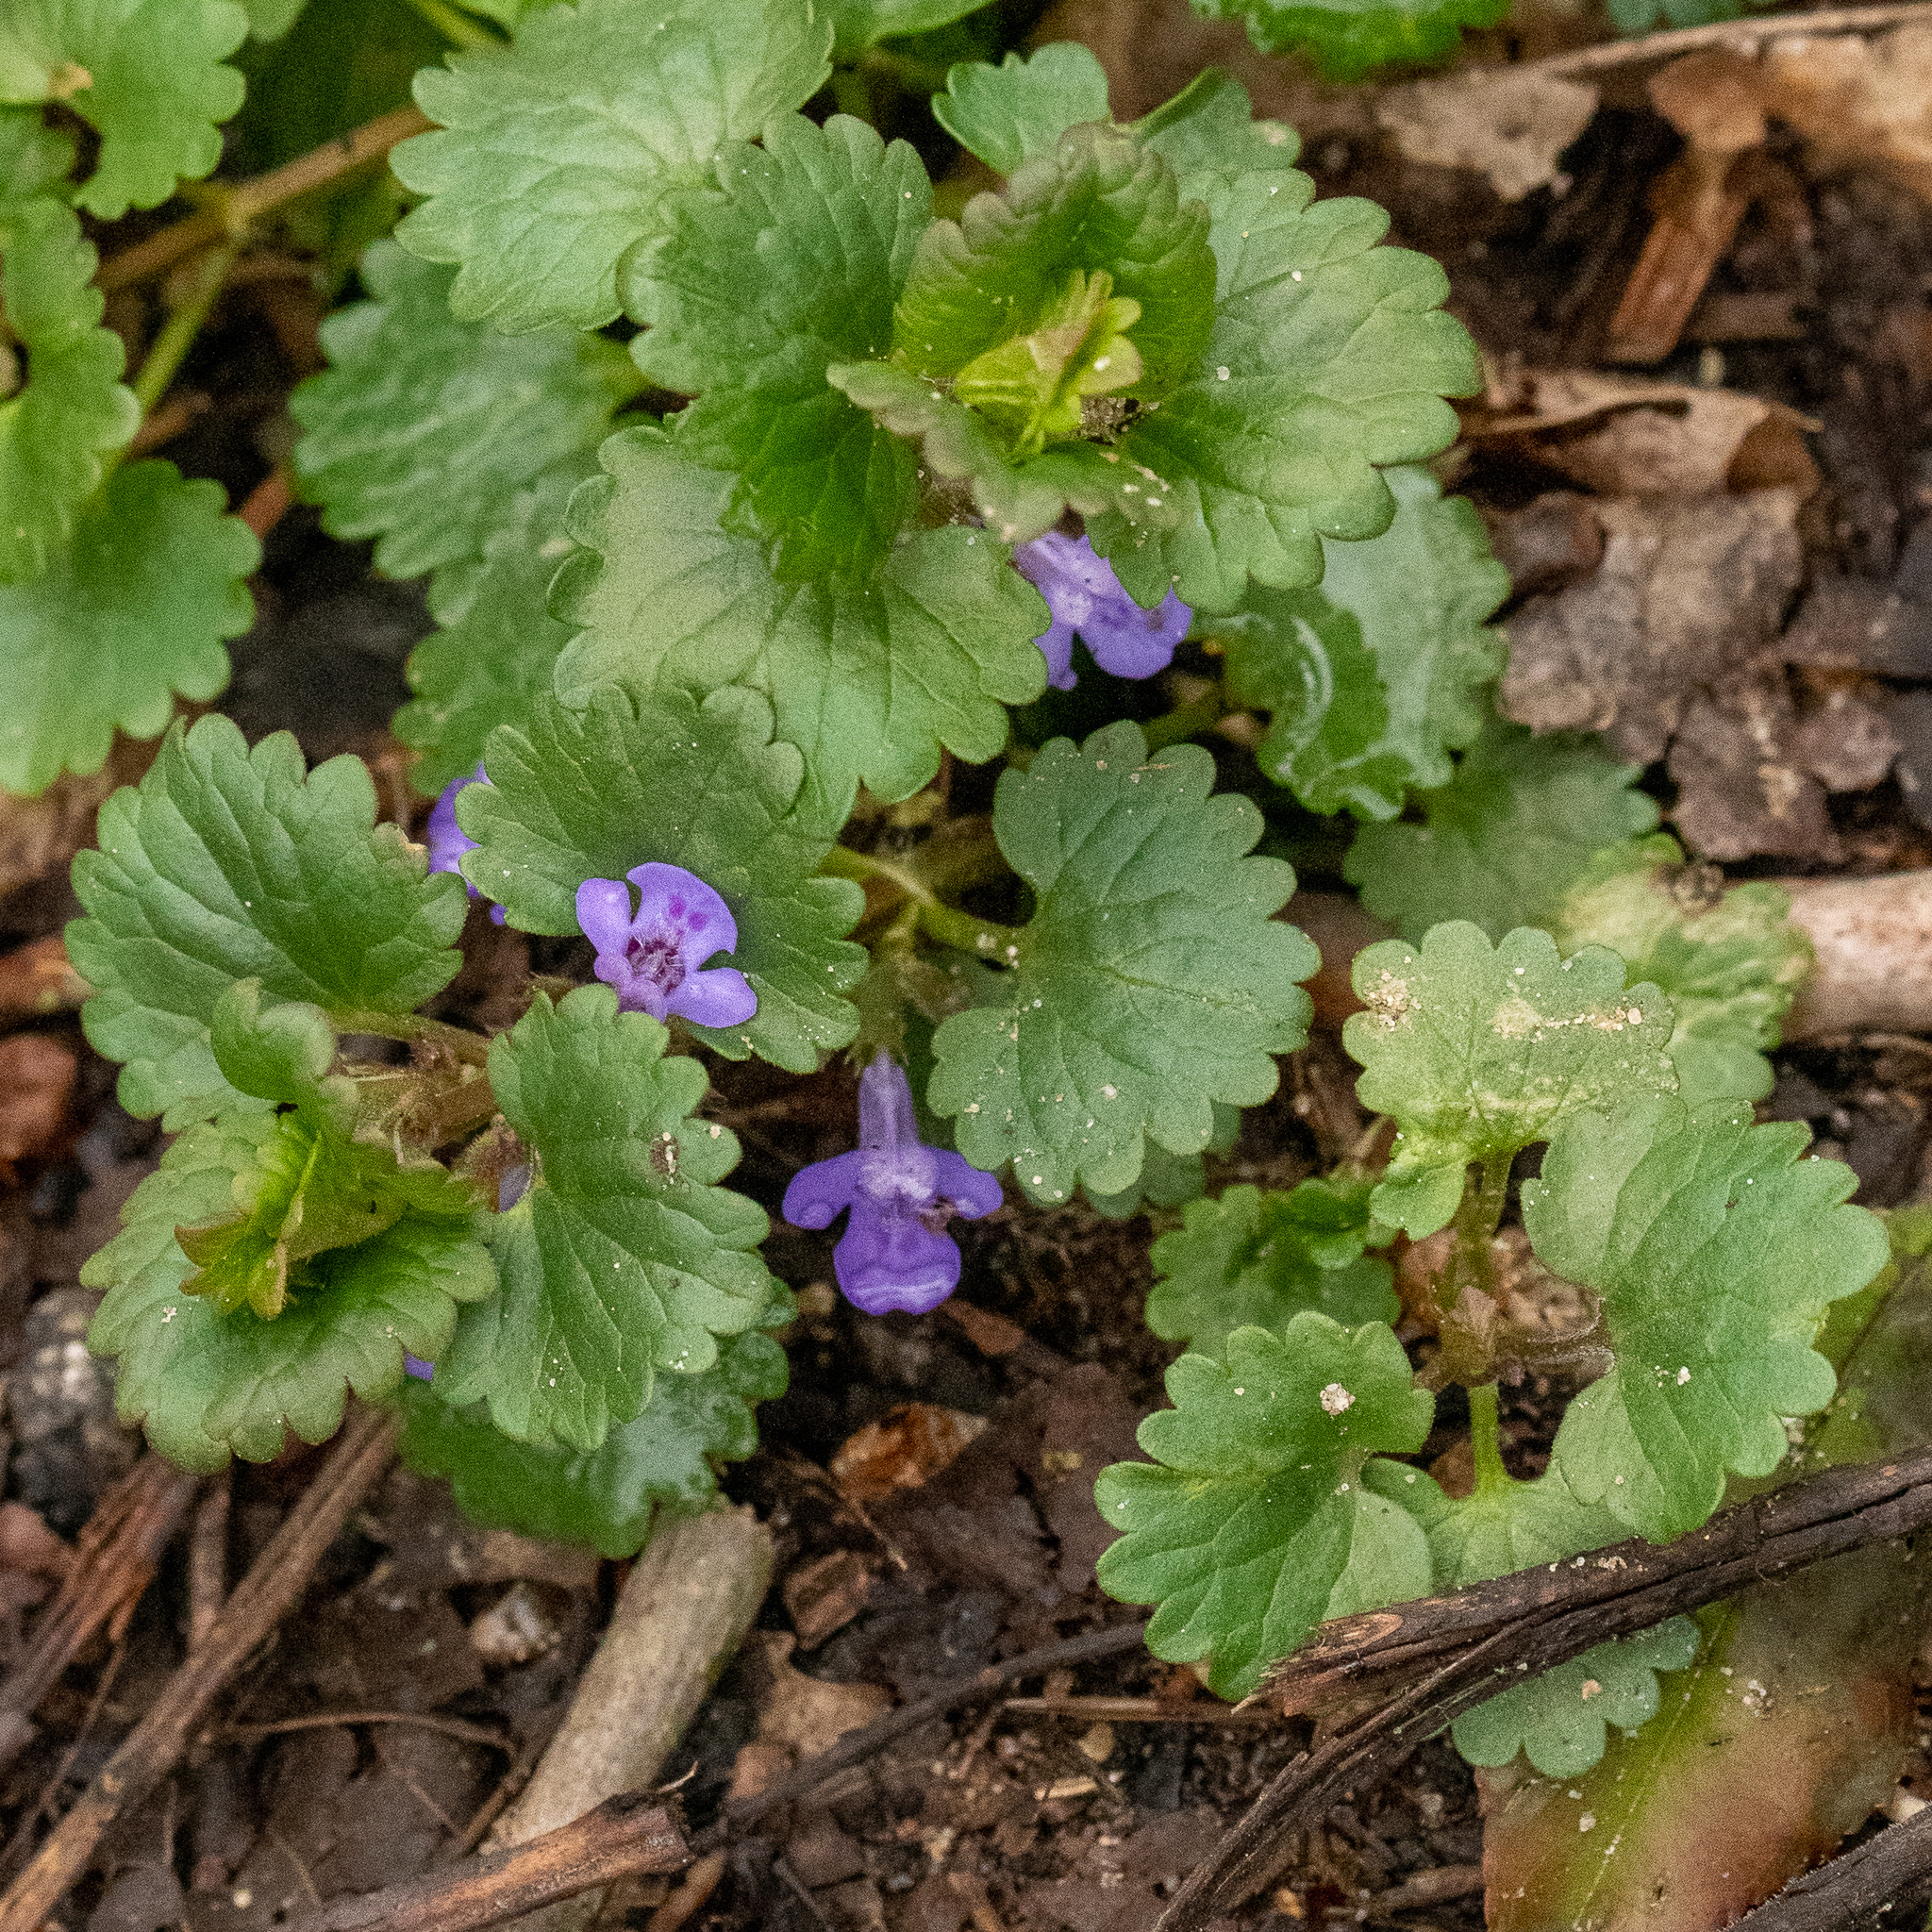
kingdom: Plantae
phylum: Tracheophyta
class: Magnoliopsida
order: Lamiales
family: Lamiaceae
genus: Glechoma
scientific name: Glechoma hederacea
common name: Ground ivy
